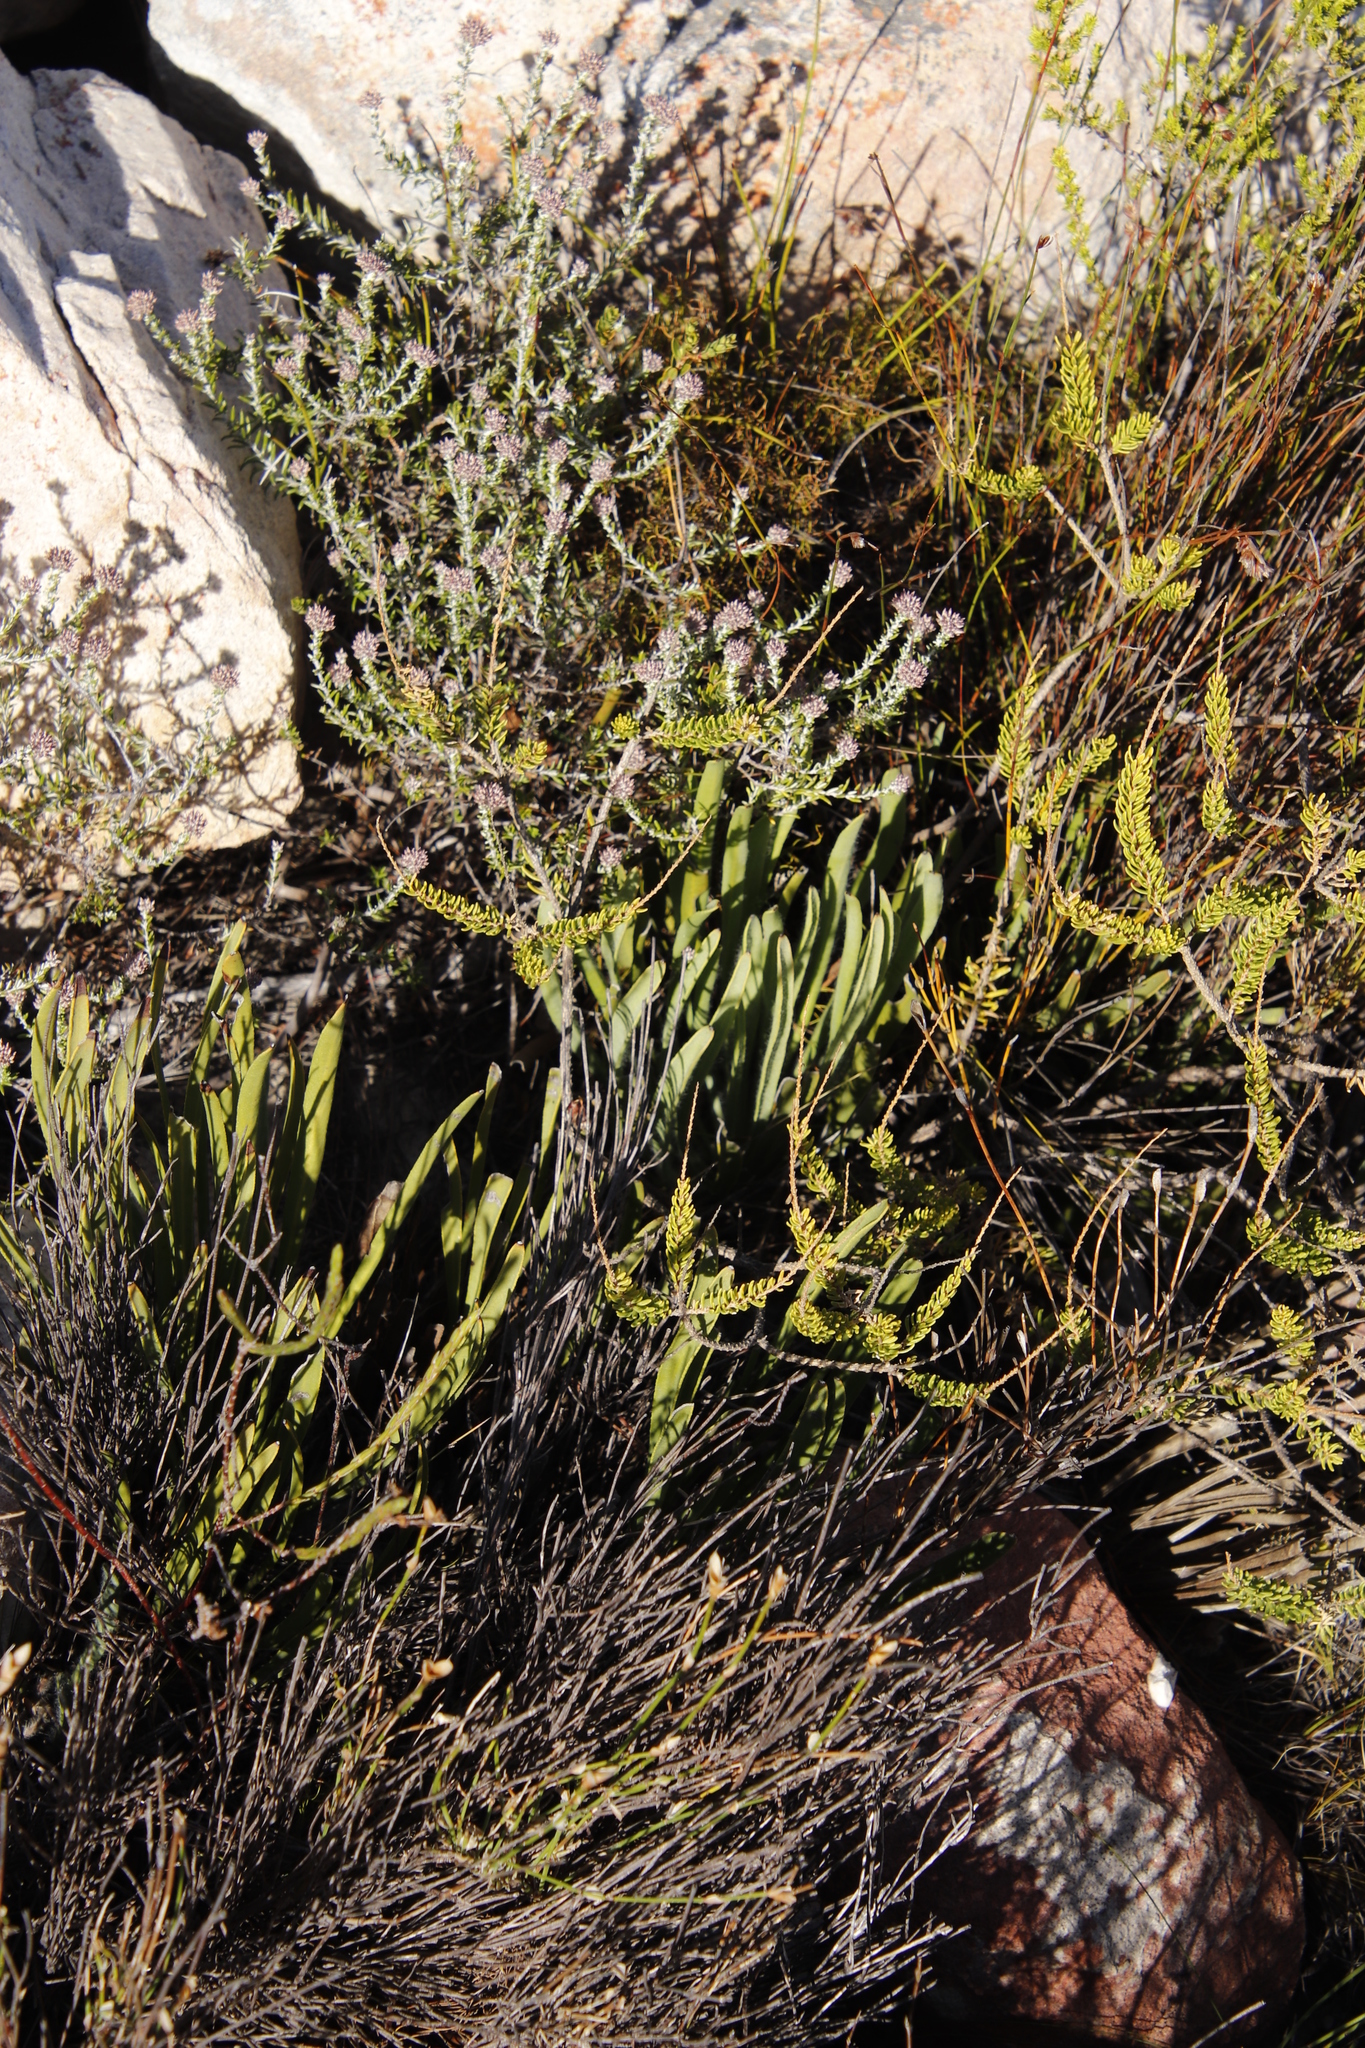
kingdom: Plantae
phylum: Tracheophyta
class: Magnoliopsida
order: Proteales
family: Proteaceae
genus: Protea
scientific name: Protea scabra
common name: Sandpaper-leaf sugarbush
